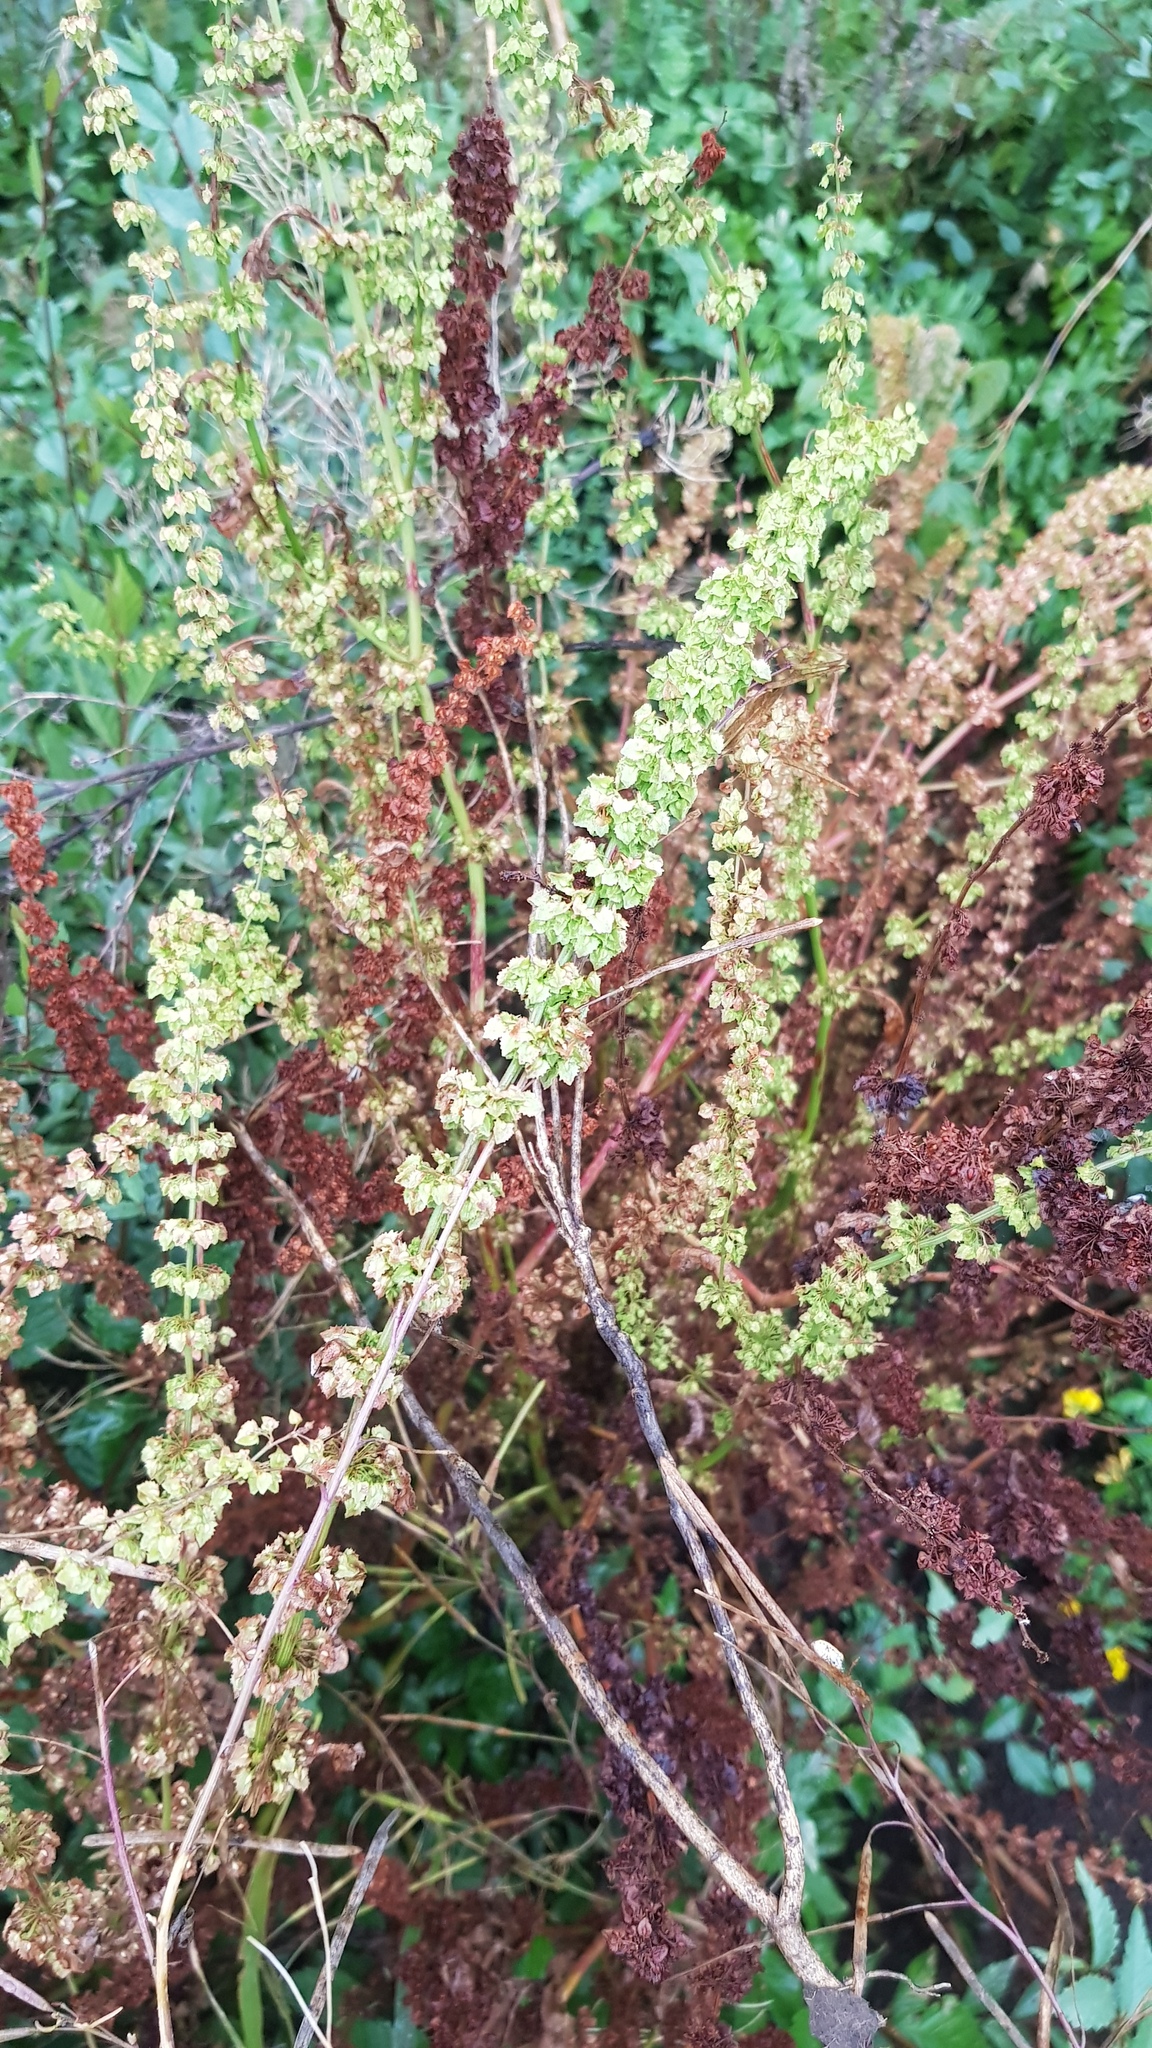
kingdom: Plantae
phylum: Tracheophyta
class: Magnoliopsida
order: Caryophyllales
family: Polygonaceae
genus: Rumex
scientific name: Rumex stenophyllus
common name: Narrowleaf dock
